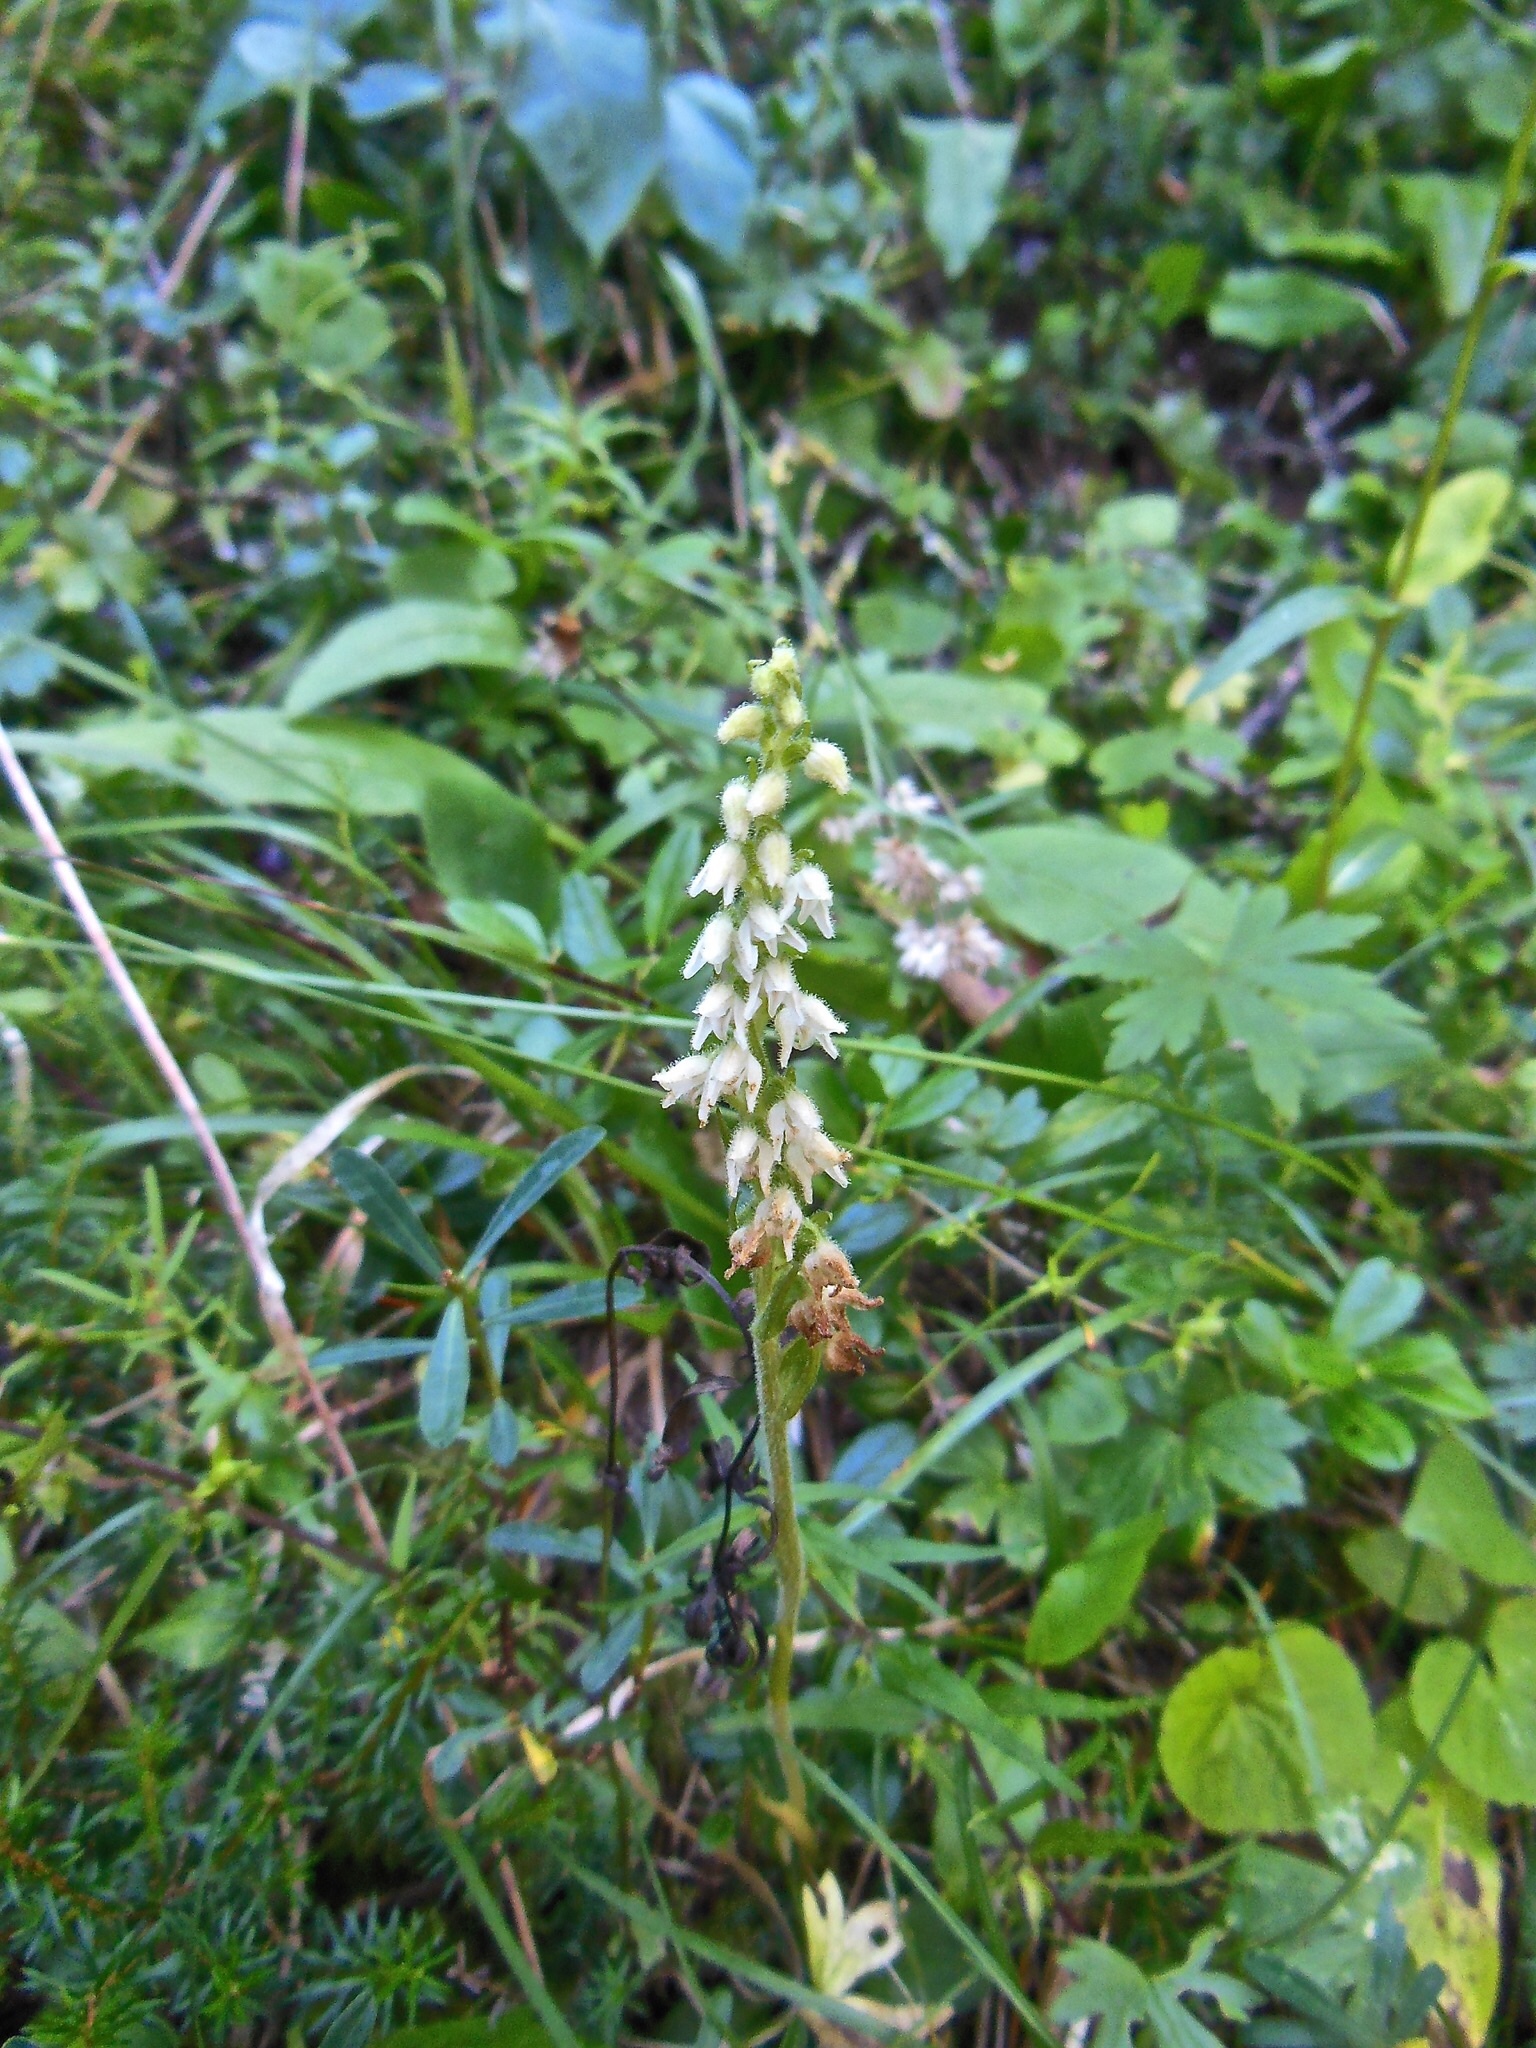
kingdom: Plantae
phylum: Tracheophyta
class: Liliopsida
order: Asparagales
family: Orchidaceae
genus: Goodyera
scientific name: Goodyera repens
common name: Creeping lady's-tresses
